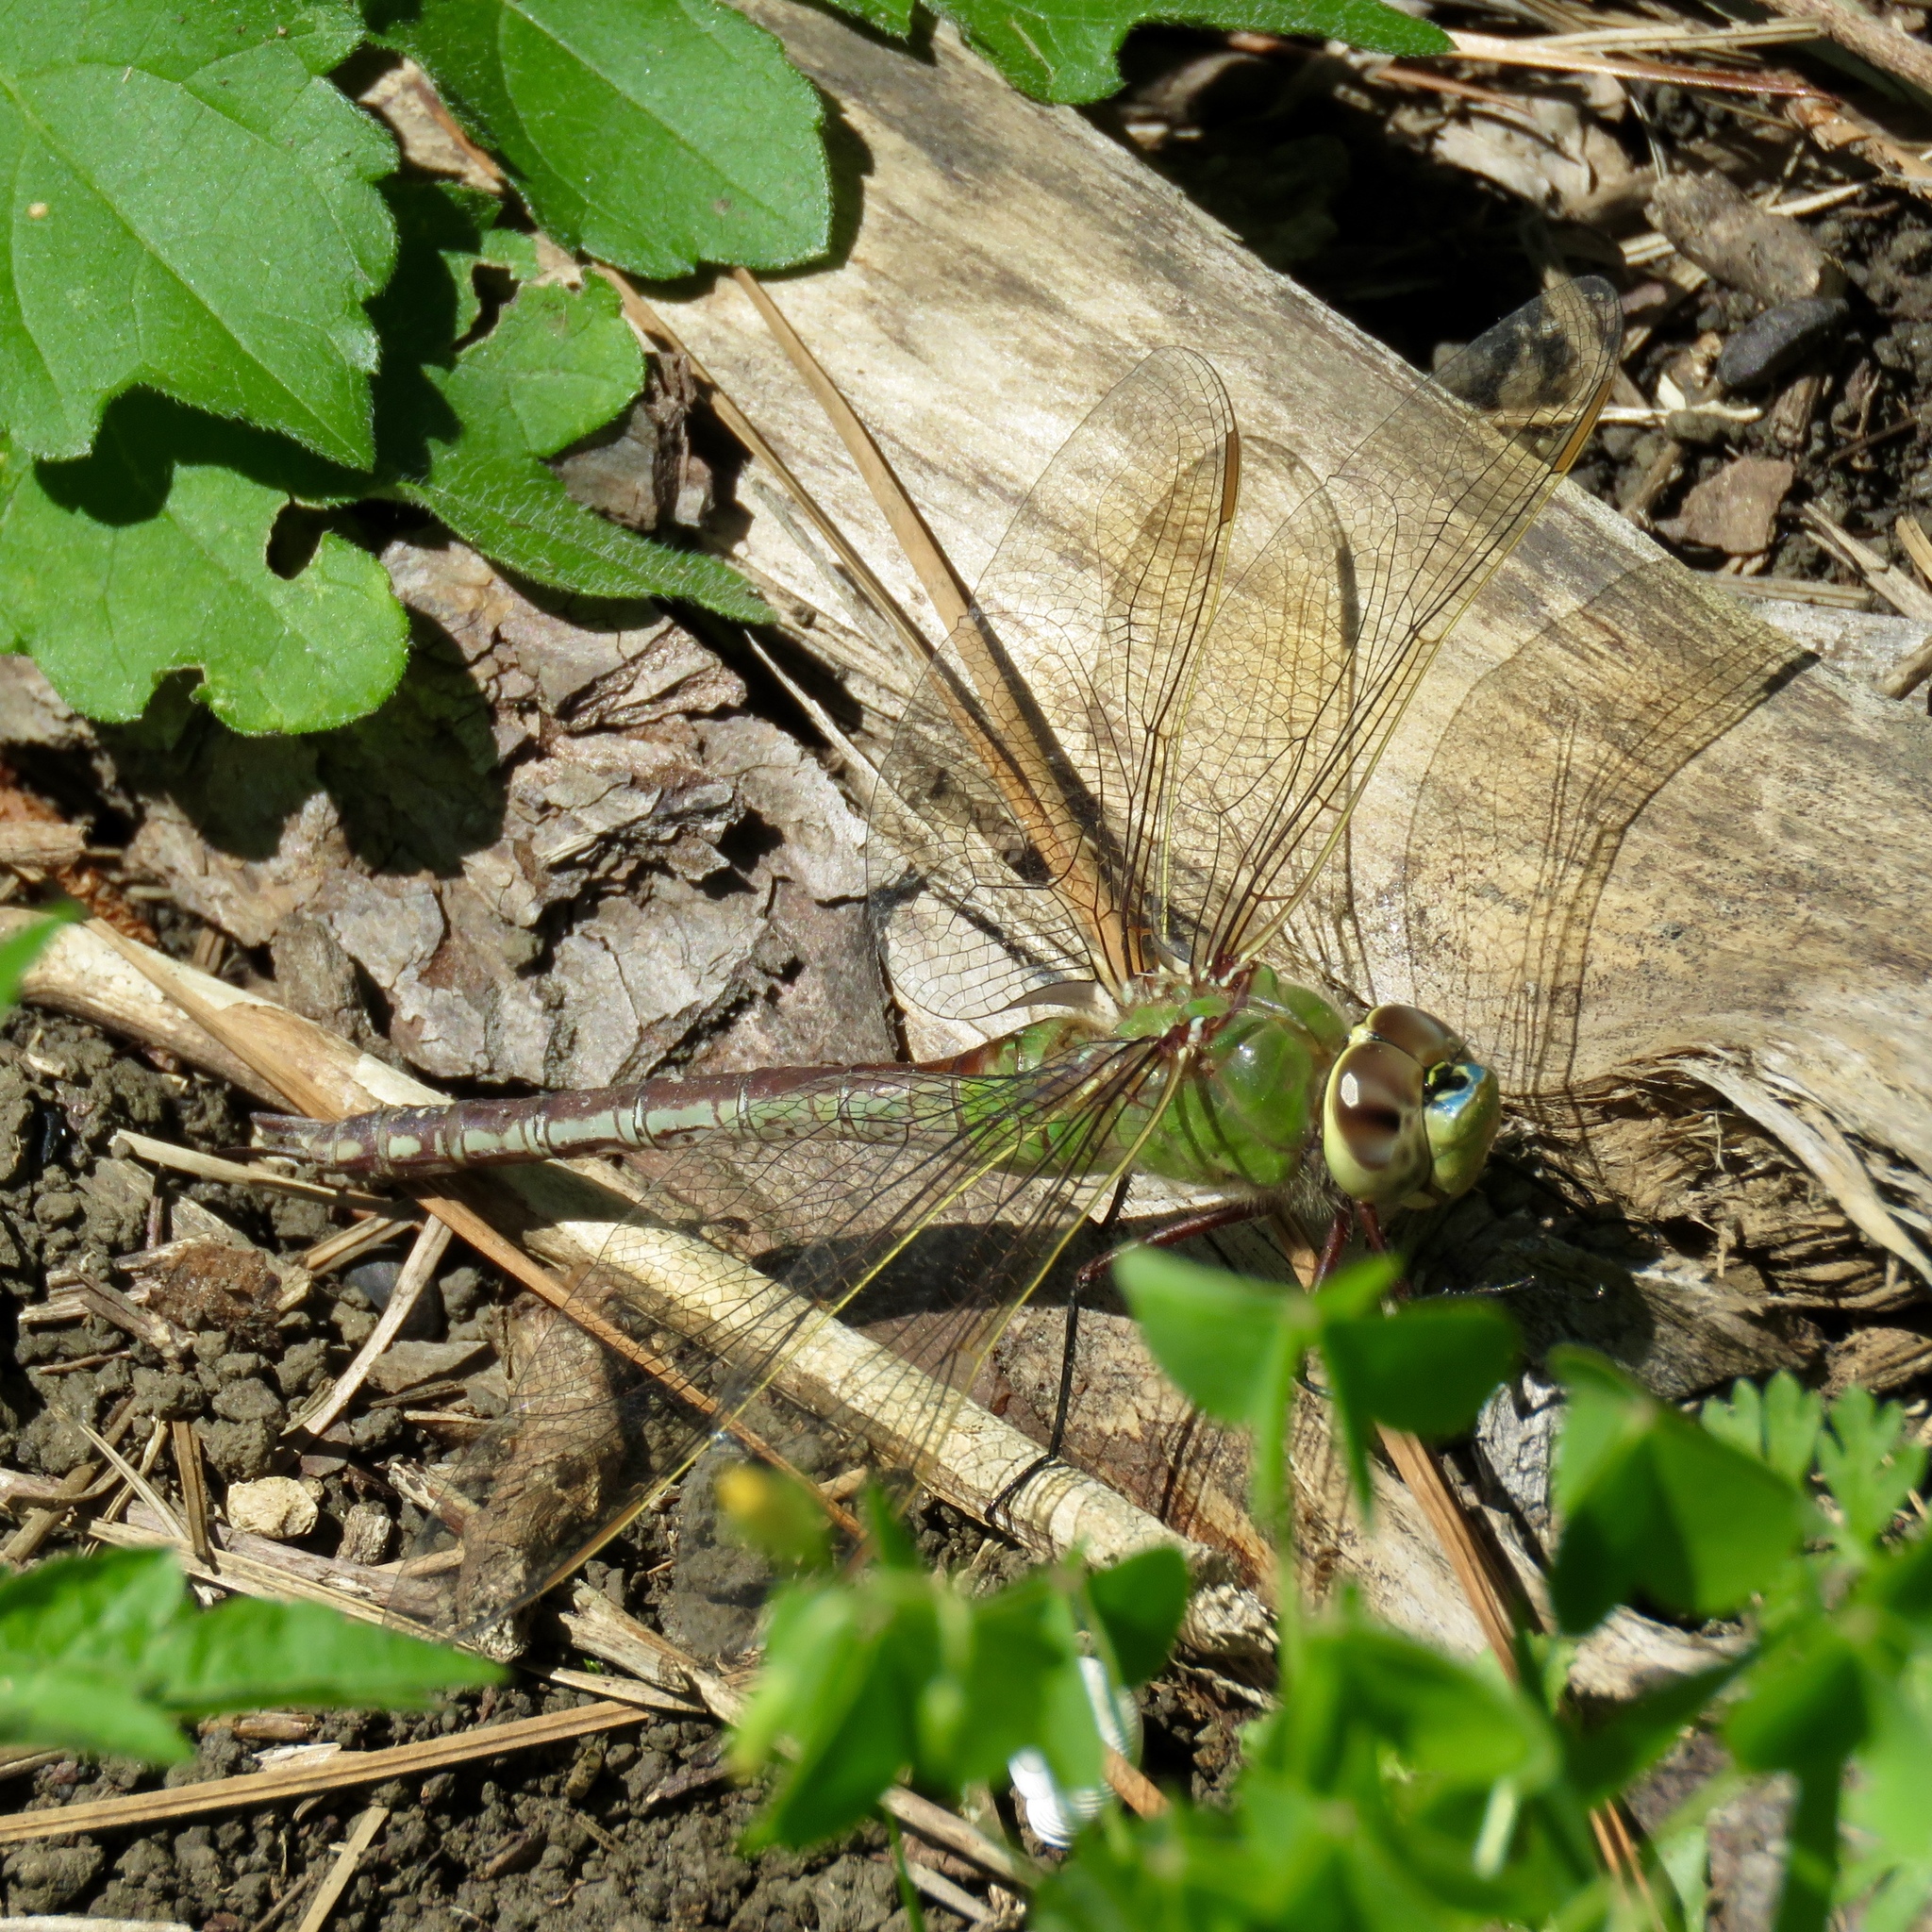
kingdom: Animalia
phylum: Arthropoda
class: Insecta
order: Odonata
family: Aeshnidae
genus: Anax
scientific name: Anax junius
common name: Common green darner
